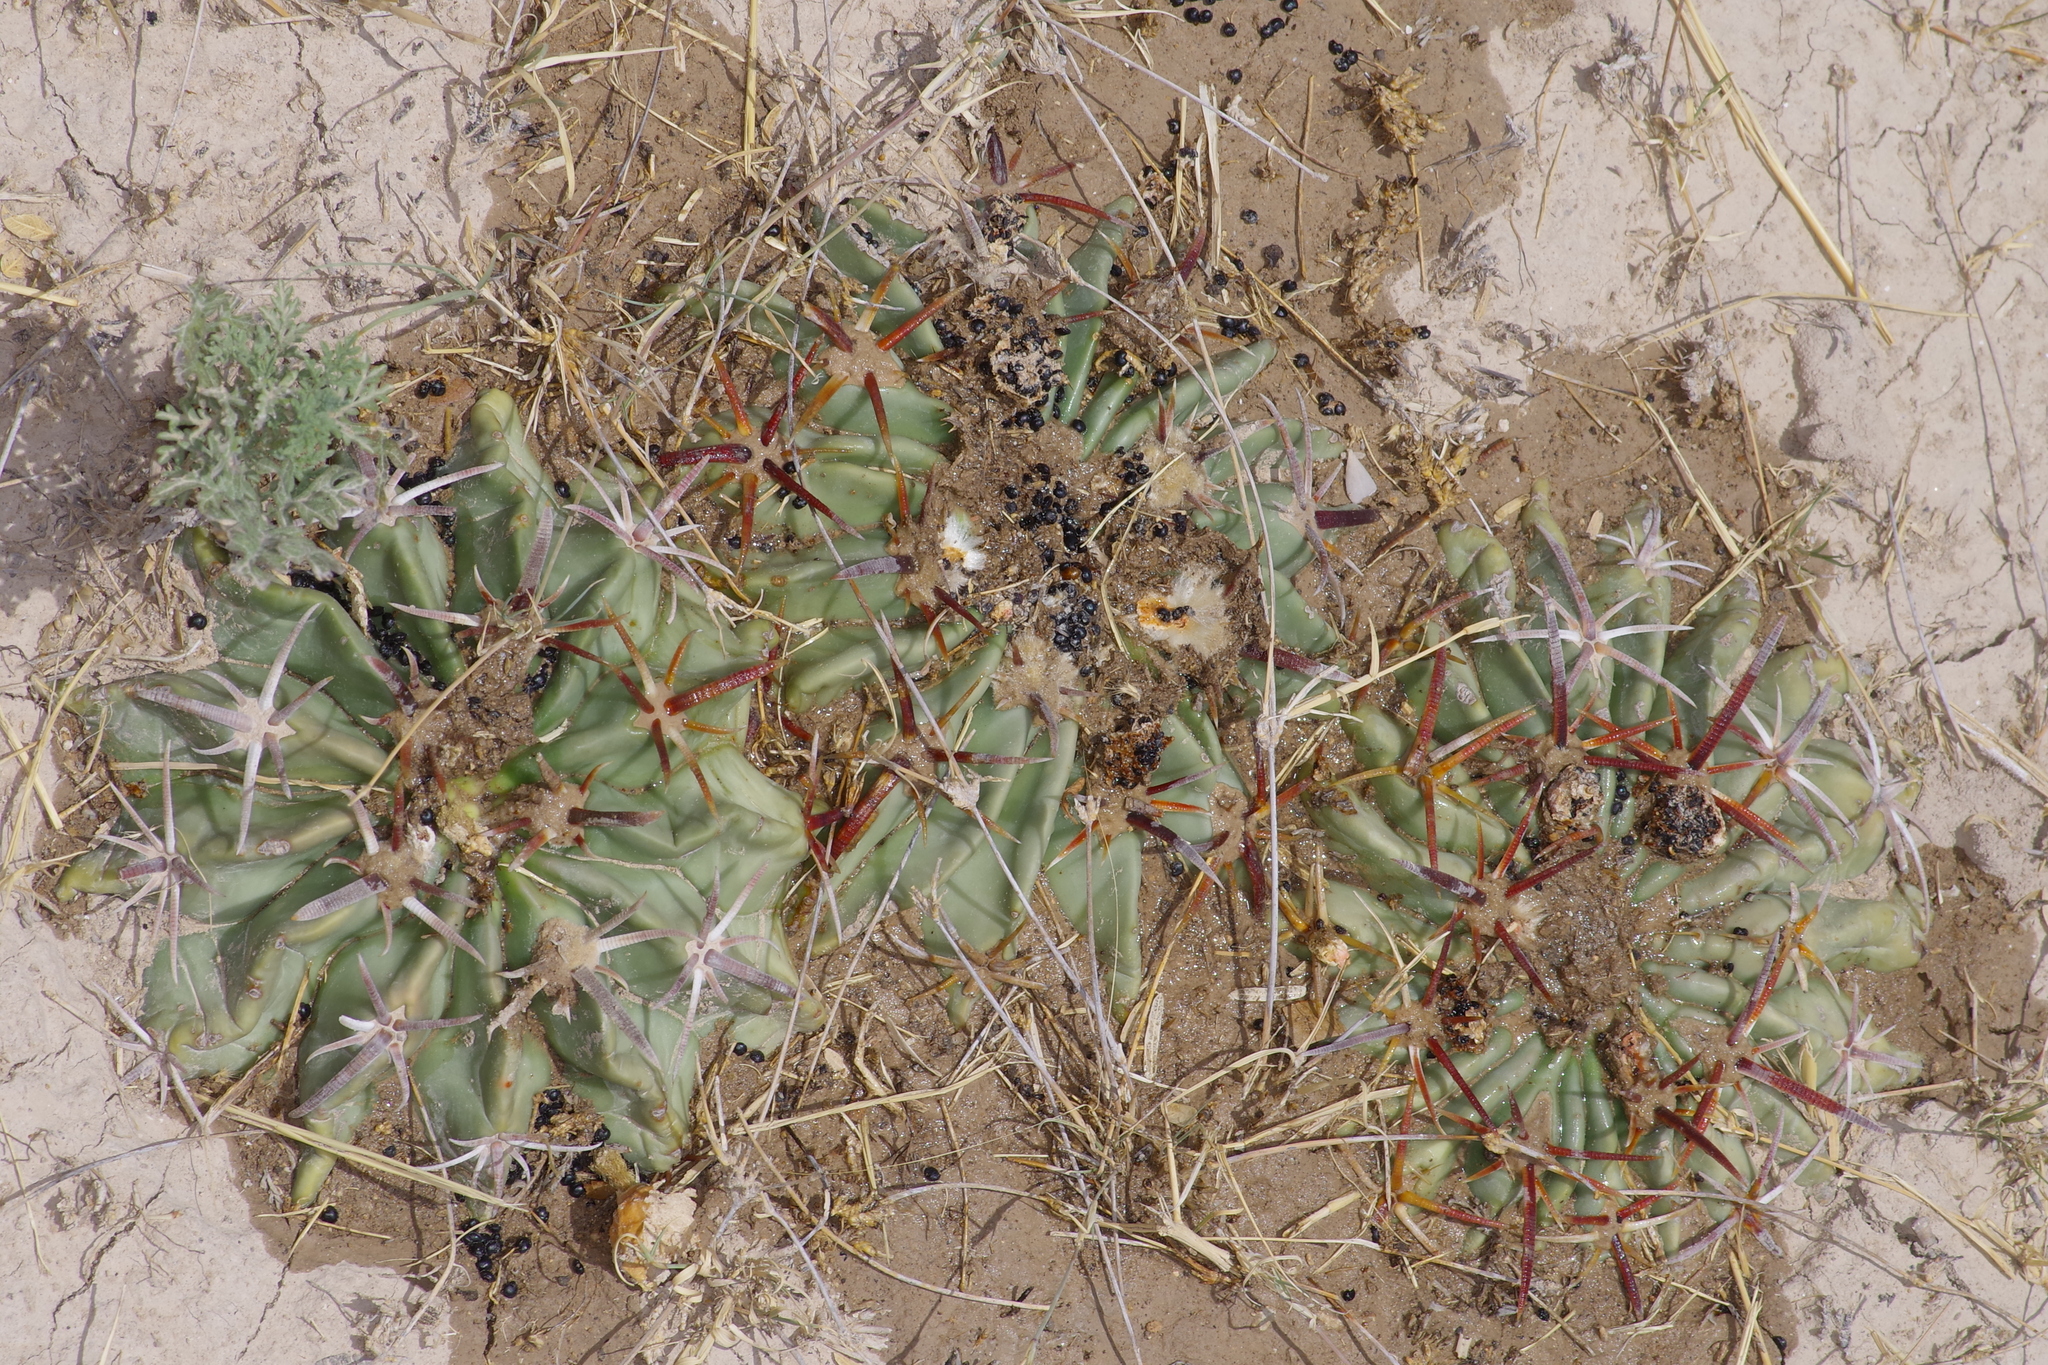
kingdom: Plantae
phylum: Tracheophyta
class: Magnoliopsida
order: Caryophyllales
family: Cactaceae
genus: Echinocactus
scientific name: Echinocactus texensis
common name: Devil's pincushion
